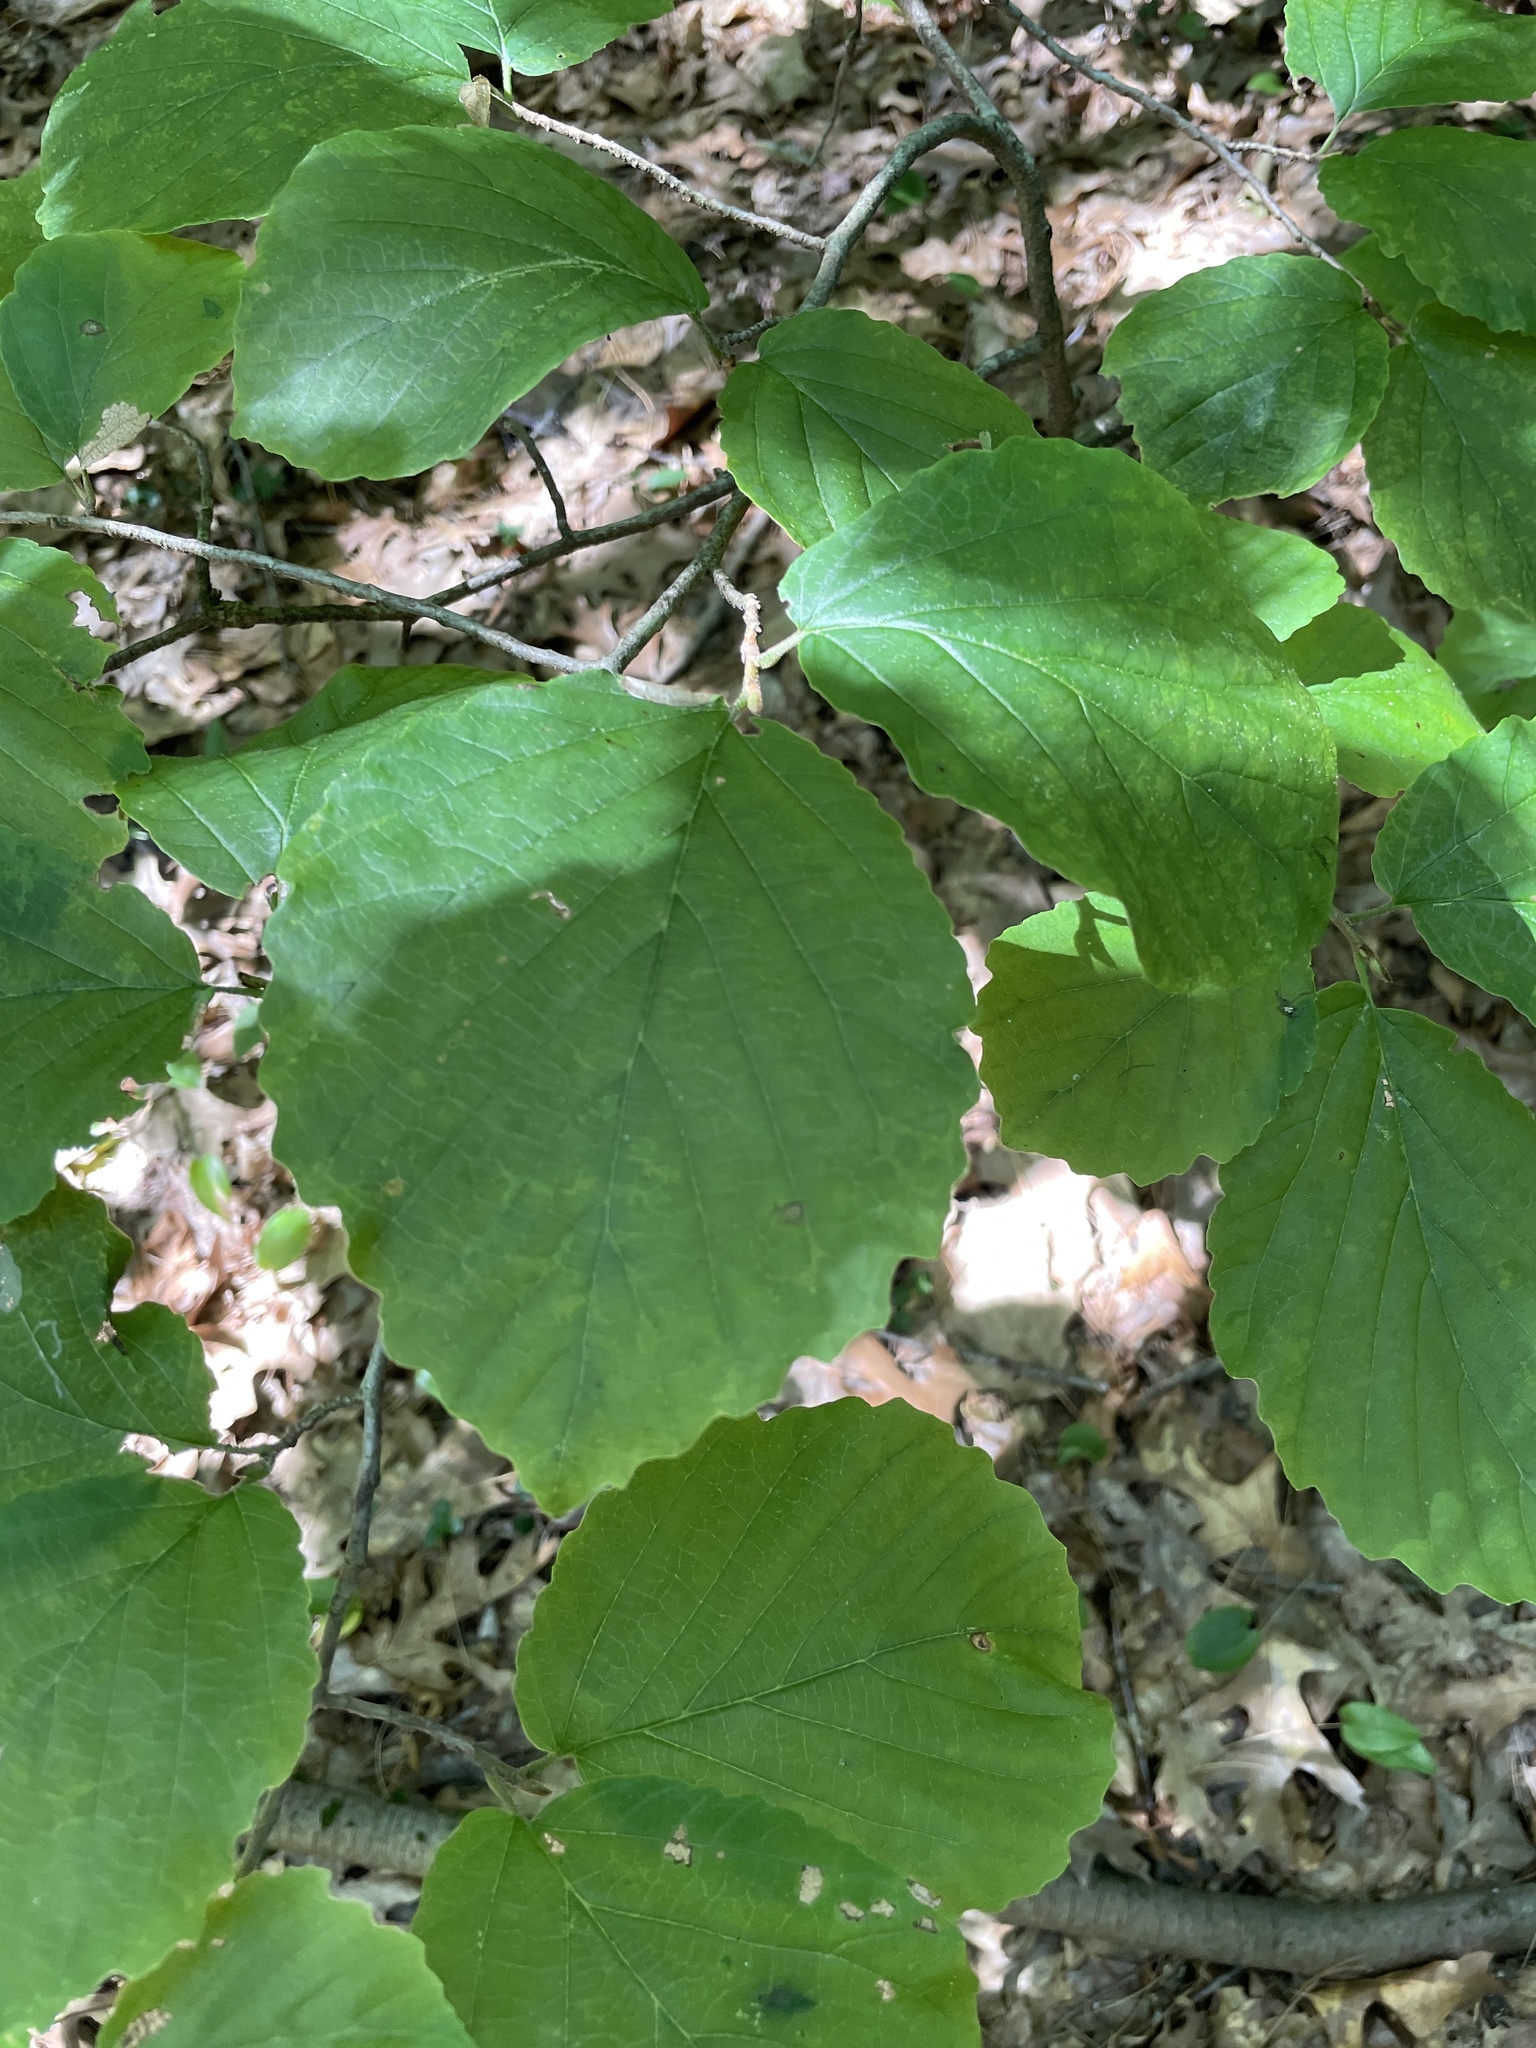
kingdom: Plantae
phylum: Tracheophyta
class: Magnoliopsida
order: Saxifragales
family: Hamamelidaceae
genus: Hamamelis
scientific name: Hamamelis virginiana
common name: Witch-hazel
